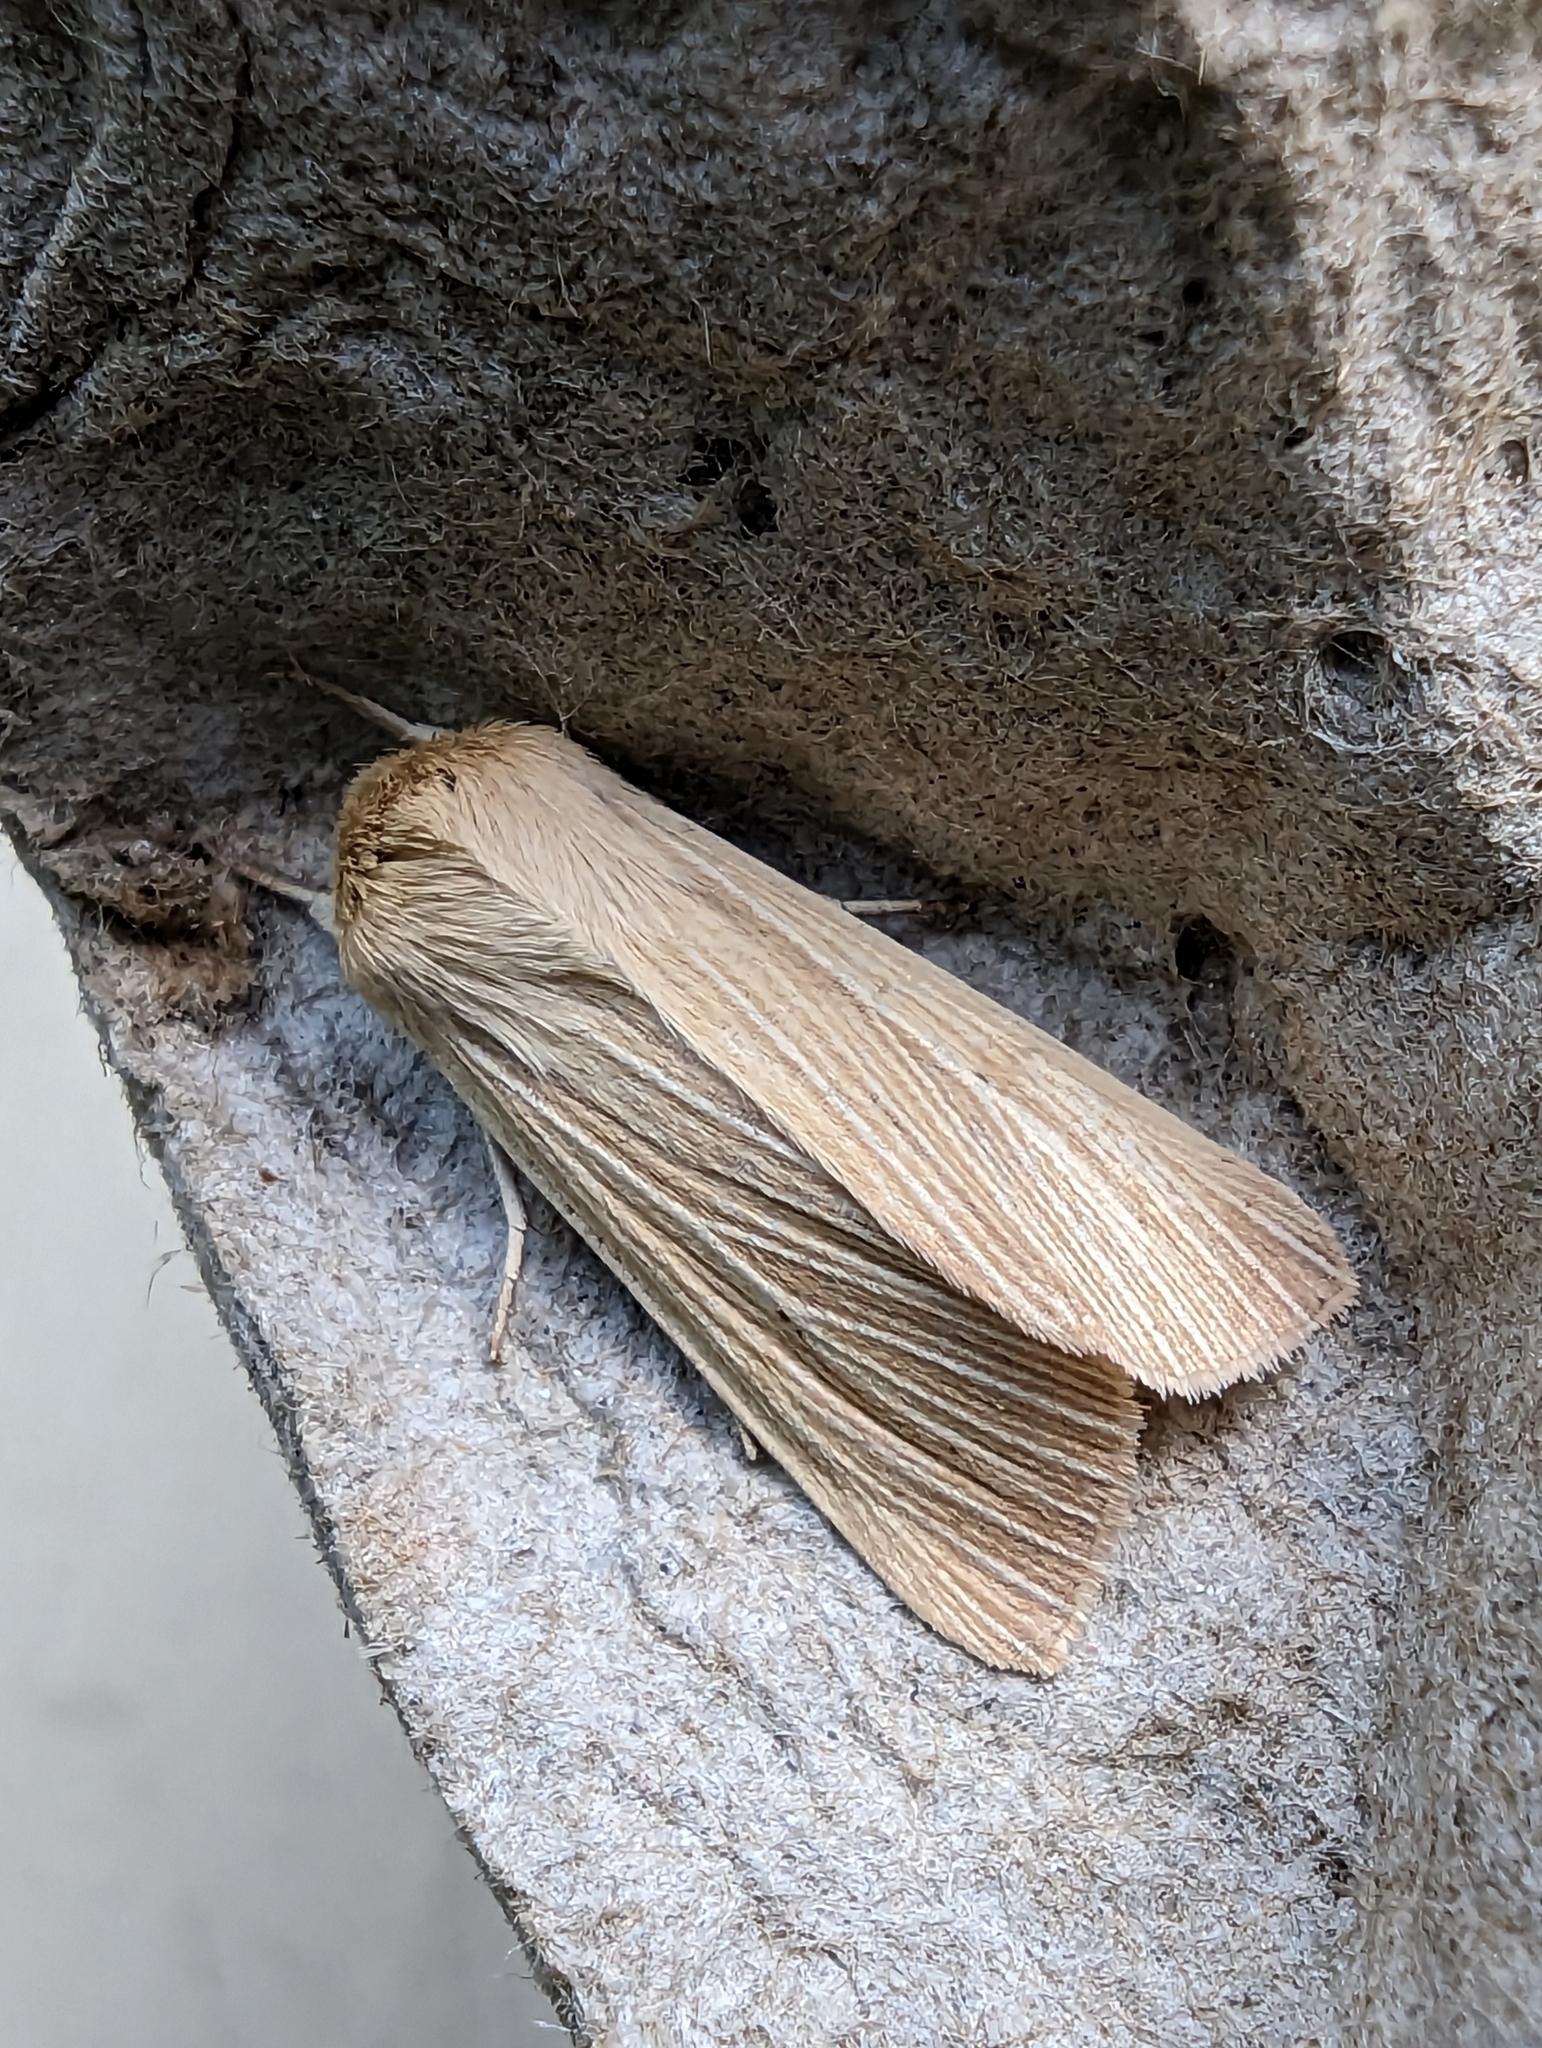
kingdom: Animalia
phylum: Arthropoda
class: Insecta
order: Lepidoptera
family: Noctuidae
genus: Mythimna
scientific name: Mythimna pallens
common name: Common wainscot
